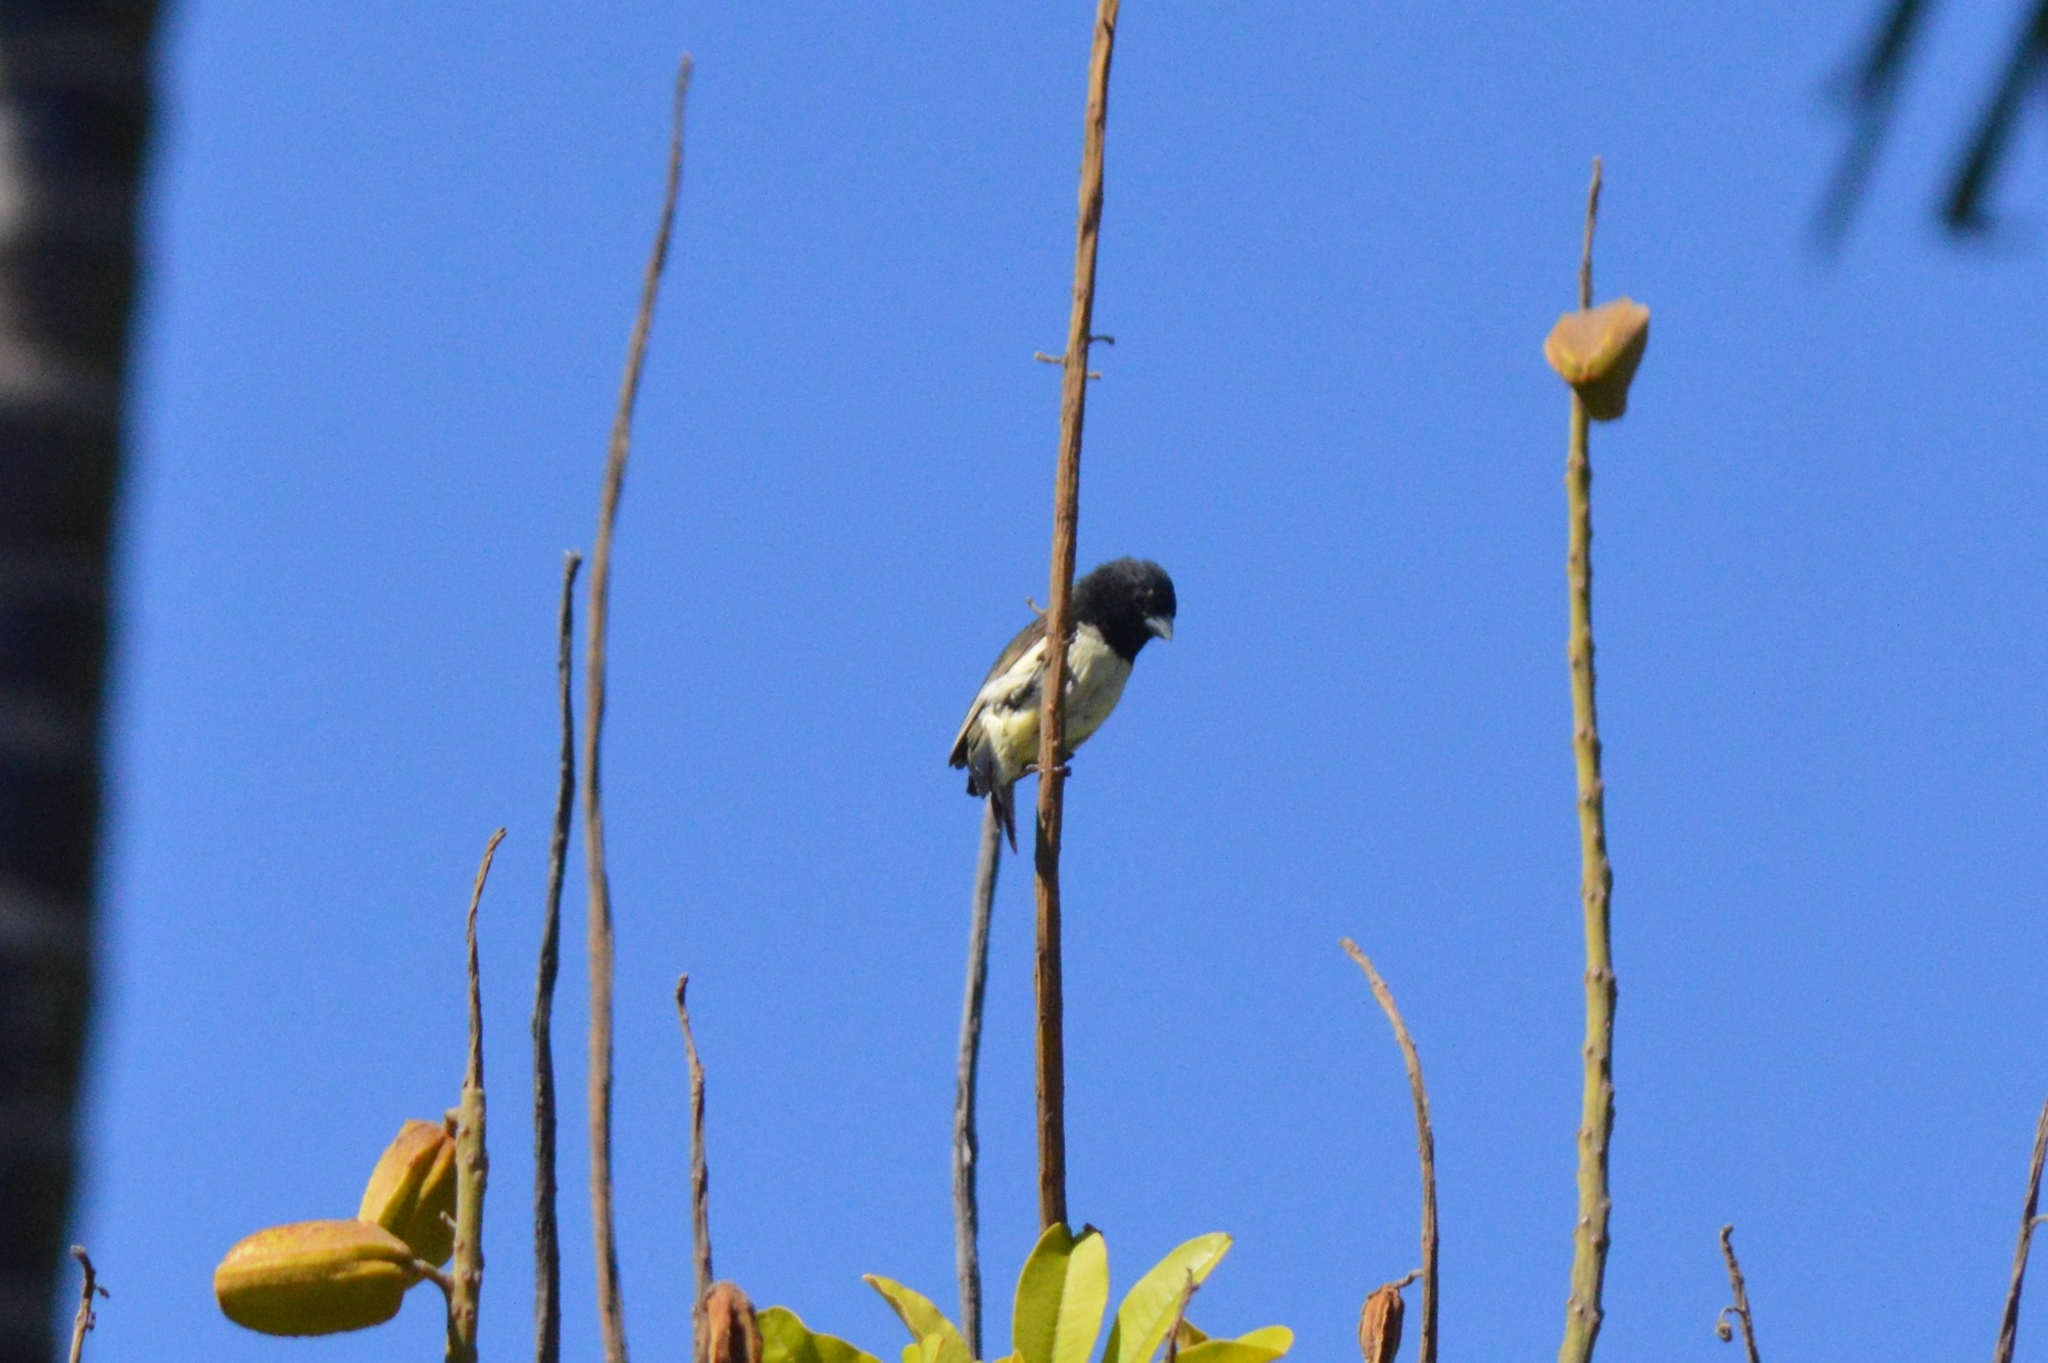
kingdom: Animalia
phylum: Chordata
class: Aves
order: Passeriformes
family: Thraupidae
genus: Sporophila
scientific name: Sporophila nigricollis
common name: Yellow-bellied seedeater
